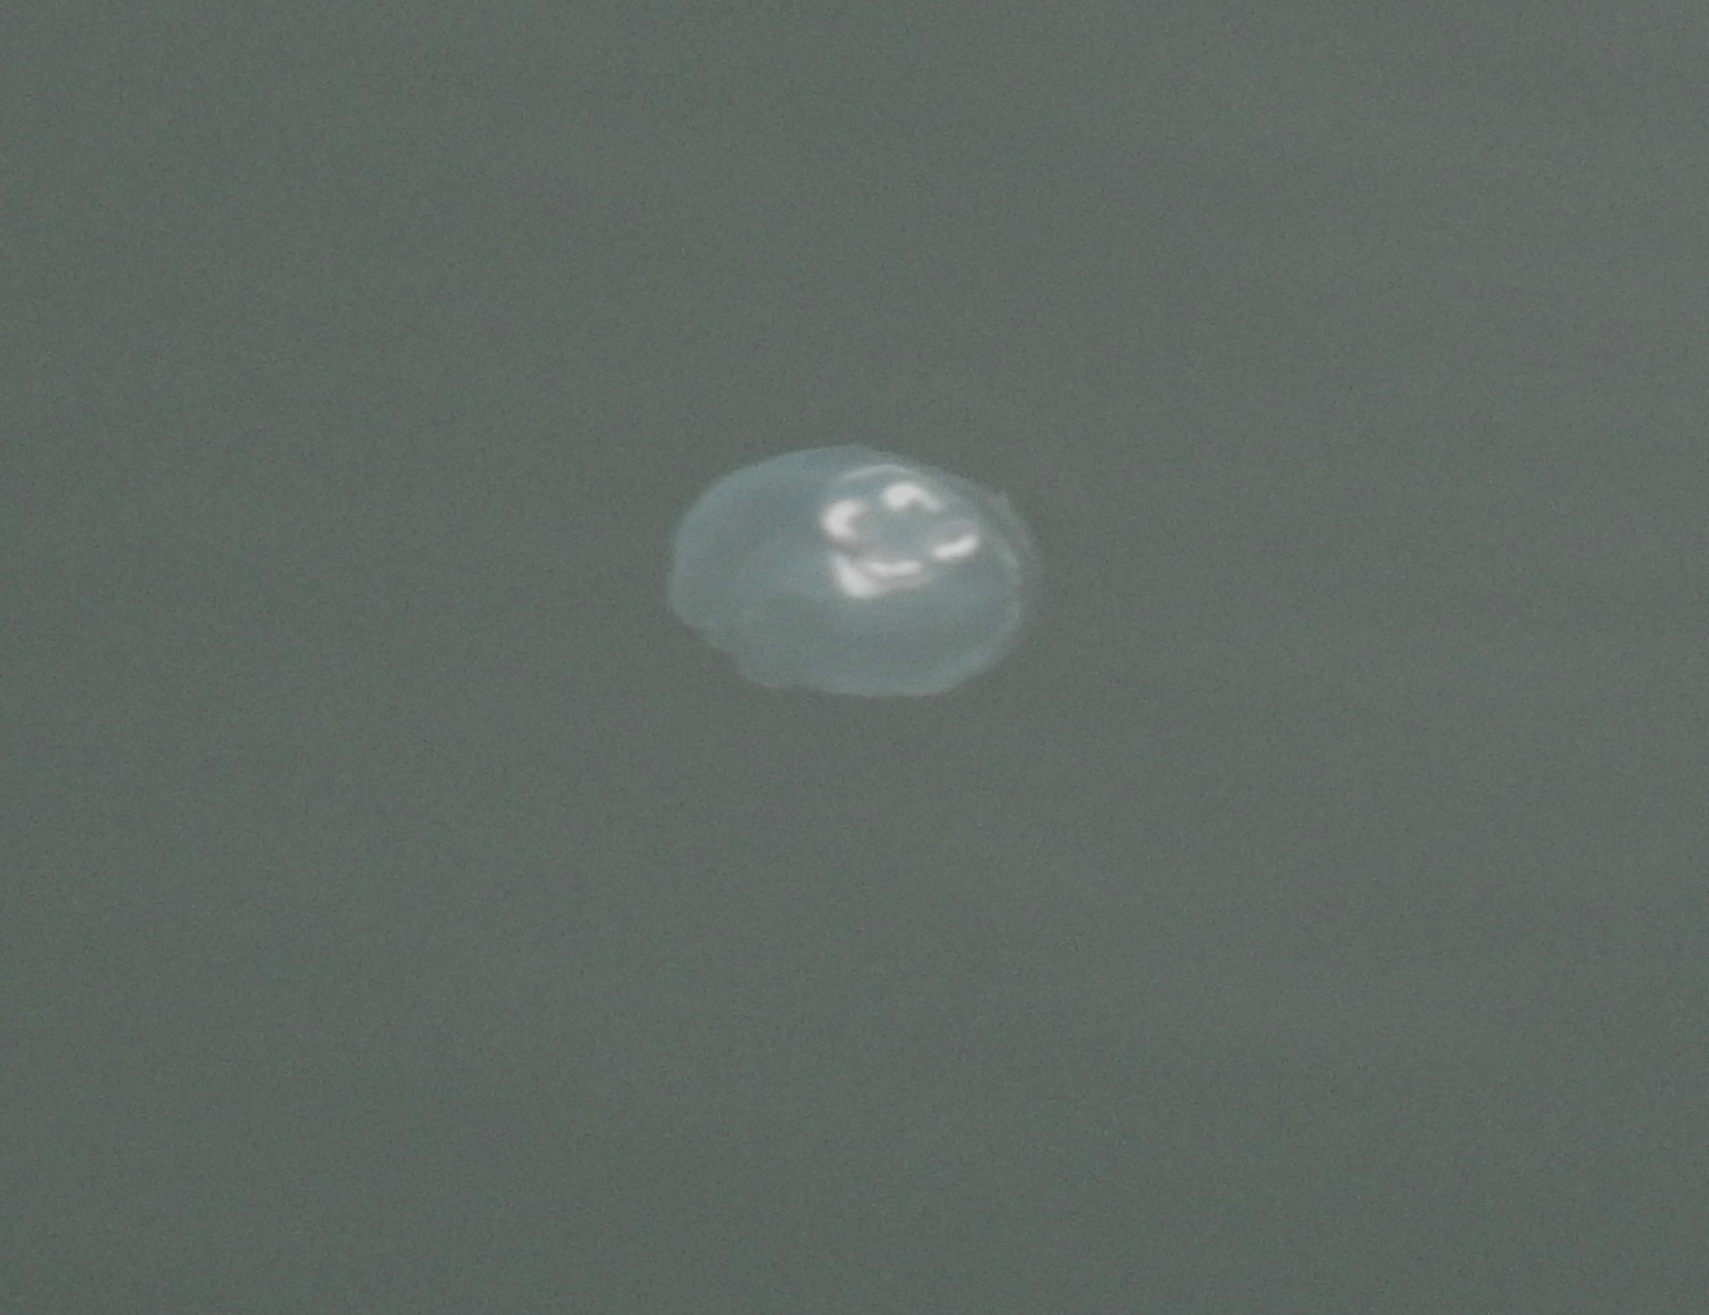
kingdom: Animalia
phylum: Cnidaria
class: Scyphozoa
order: Semaeostomeae
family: Ulmaridae
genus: Aurelia
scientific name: Aurelia labiata
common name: Pacific moon jelly
